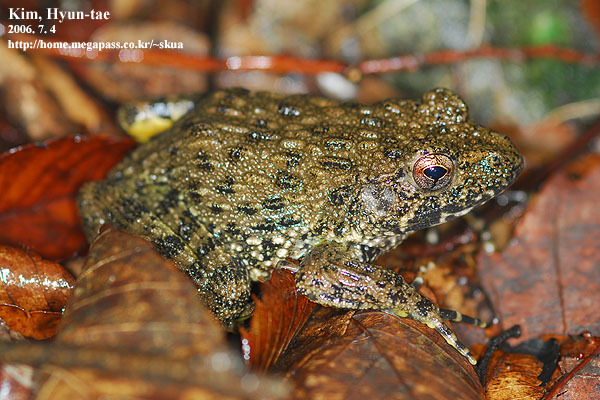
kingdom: Animalia
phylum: Chordata
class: Amphibia
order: Anura
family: Ranidae
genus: Glandirana
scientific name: Glandirana emeljanovi
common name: Northeast china rough-skinned frog
